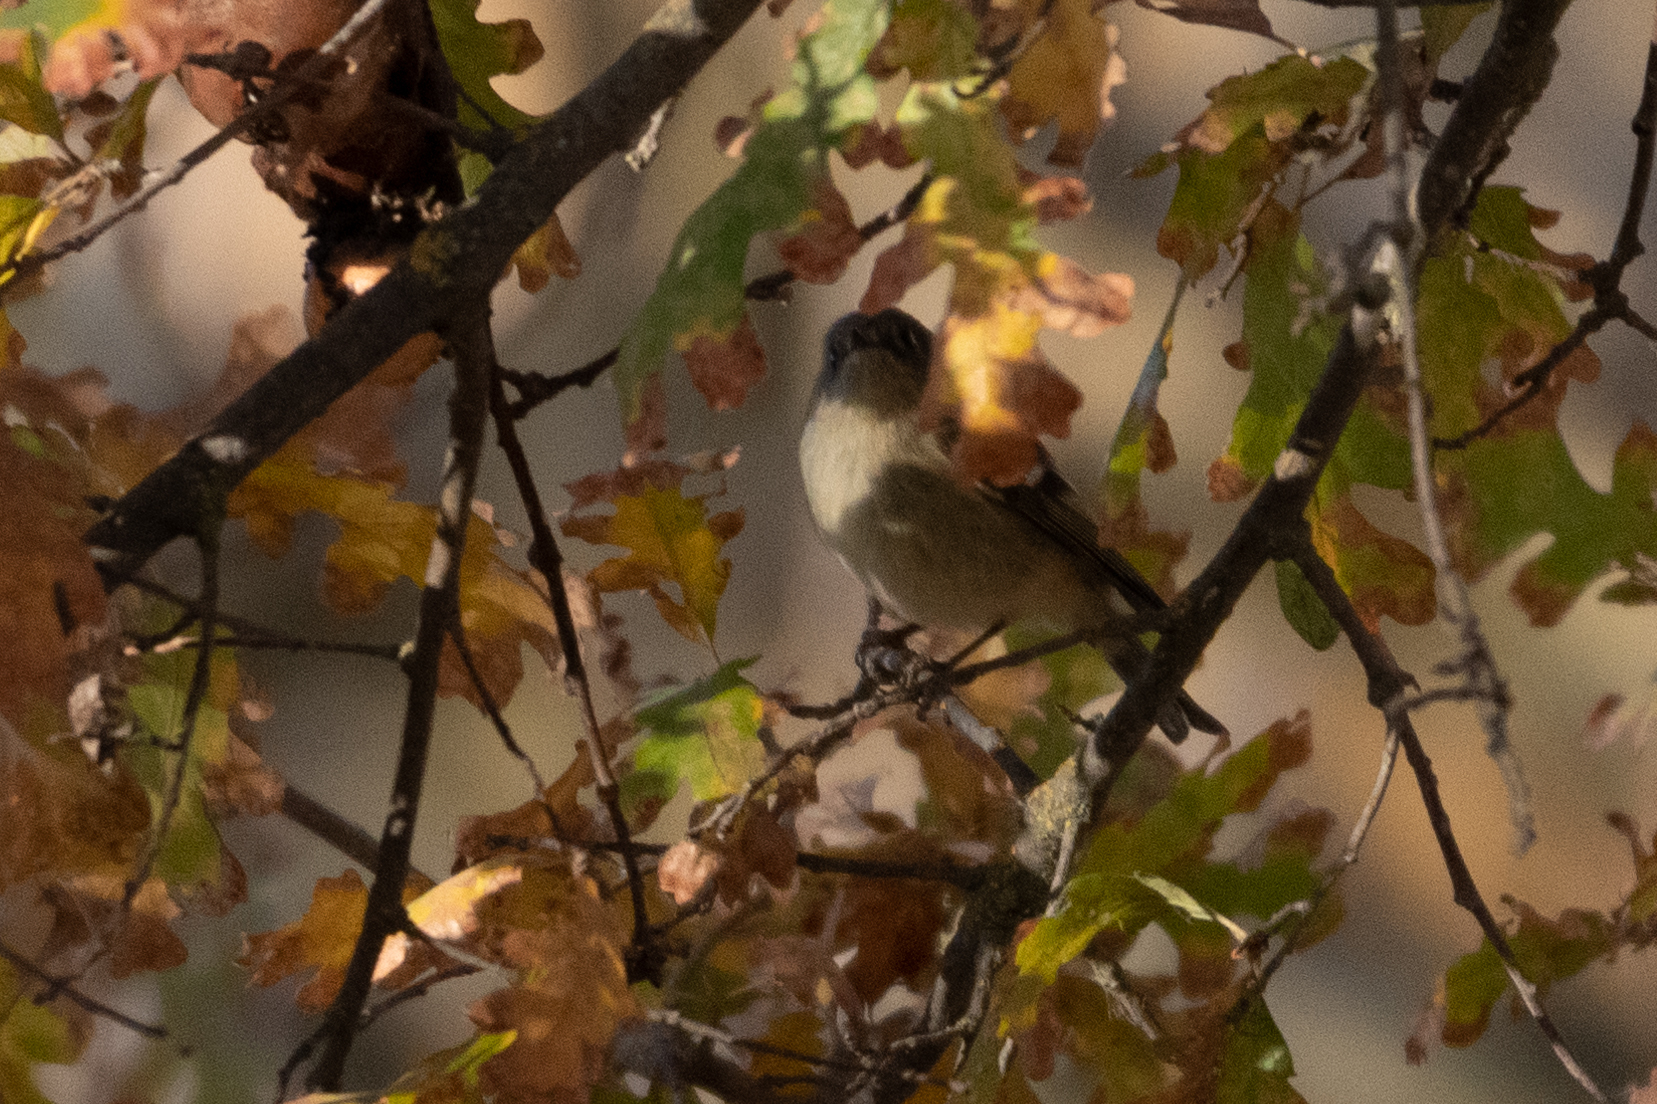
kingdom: Animalia
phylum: Chordata
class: Aves
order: Passeriformes
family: Regulidae
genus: Regulus
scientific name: Regulus calendula
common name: Ruby-crowned kinglet
